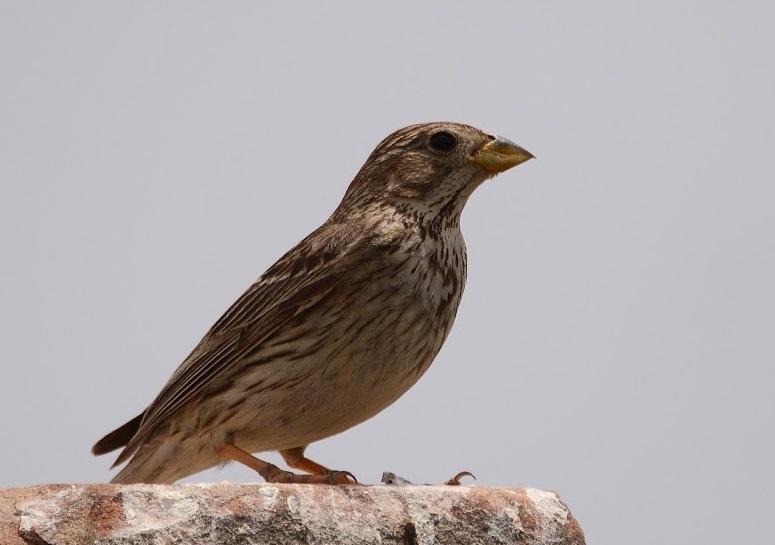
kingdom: Animalia
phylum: Chordata
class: Aves
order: Passeriformes
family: Emberizidae
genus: Emberiza
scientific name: Emberiza calandra
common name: Corn bunting
